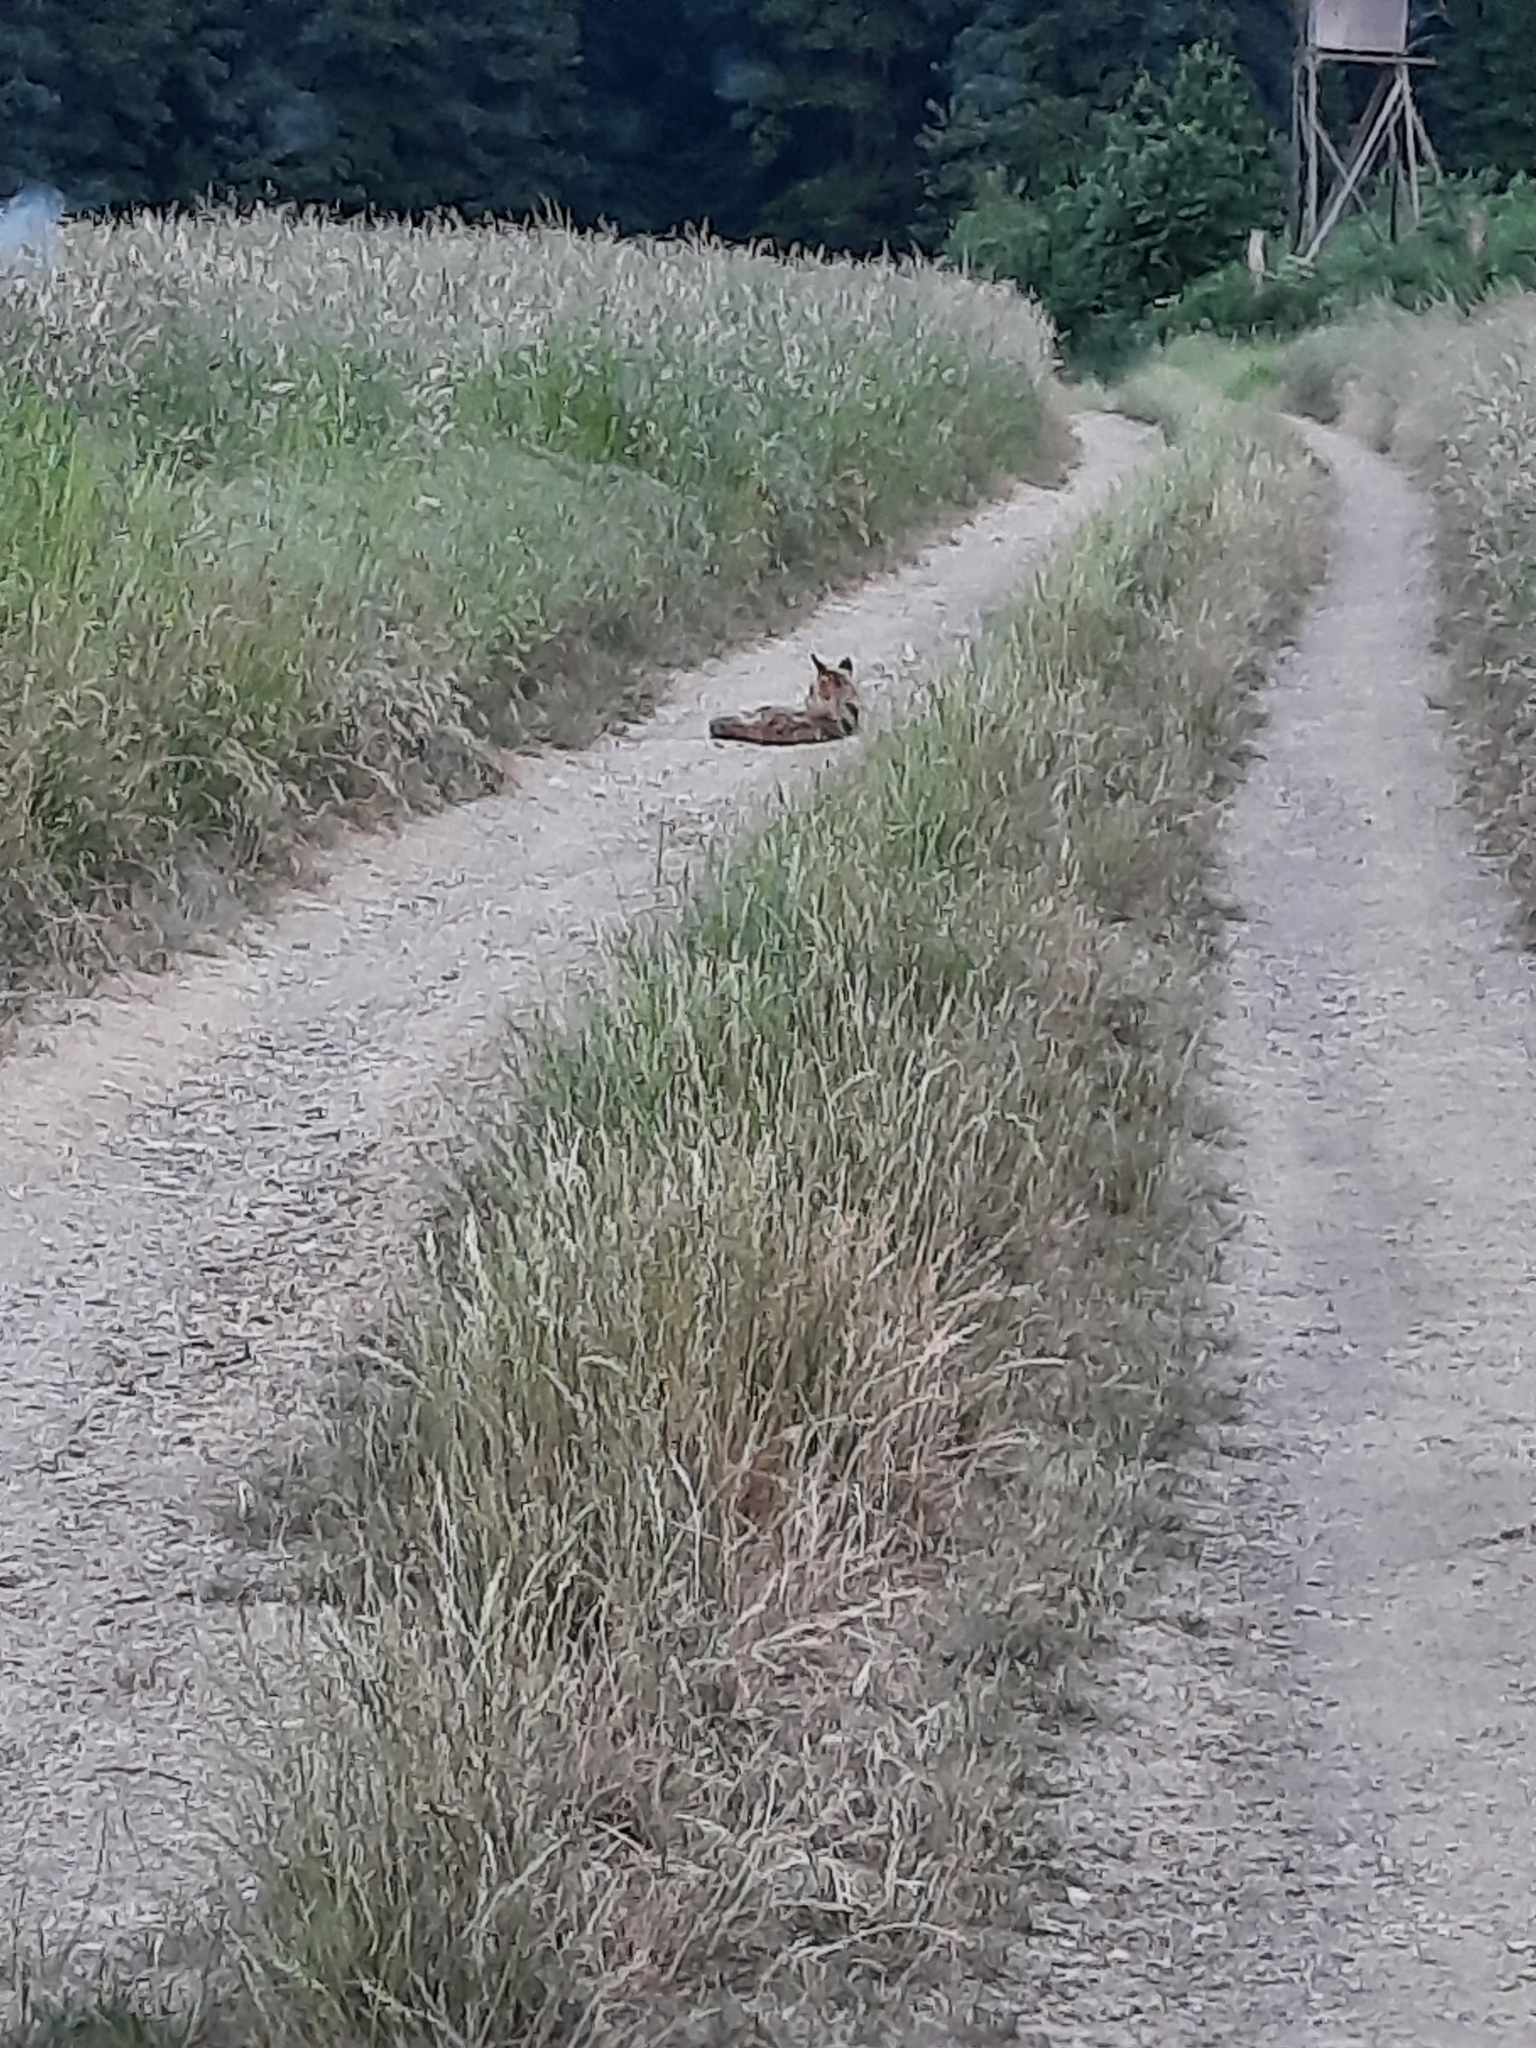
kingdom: Animalia
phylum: Chordata
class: Mammalia
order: Carnivora
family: Canidae
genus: Vulpes
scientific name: Vulpes vulpes
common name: Red fox
